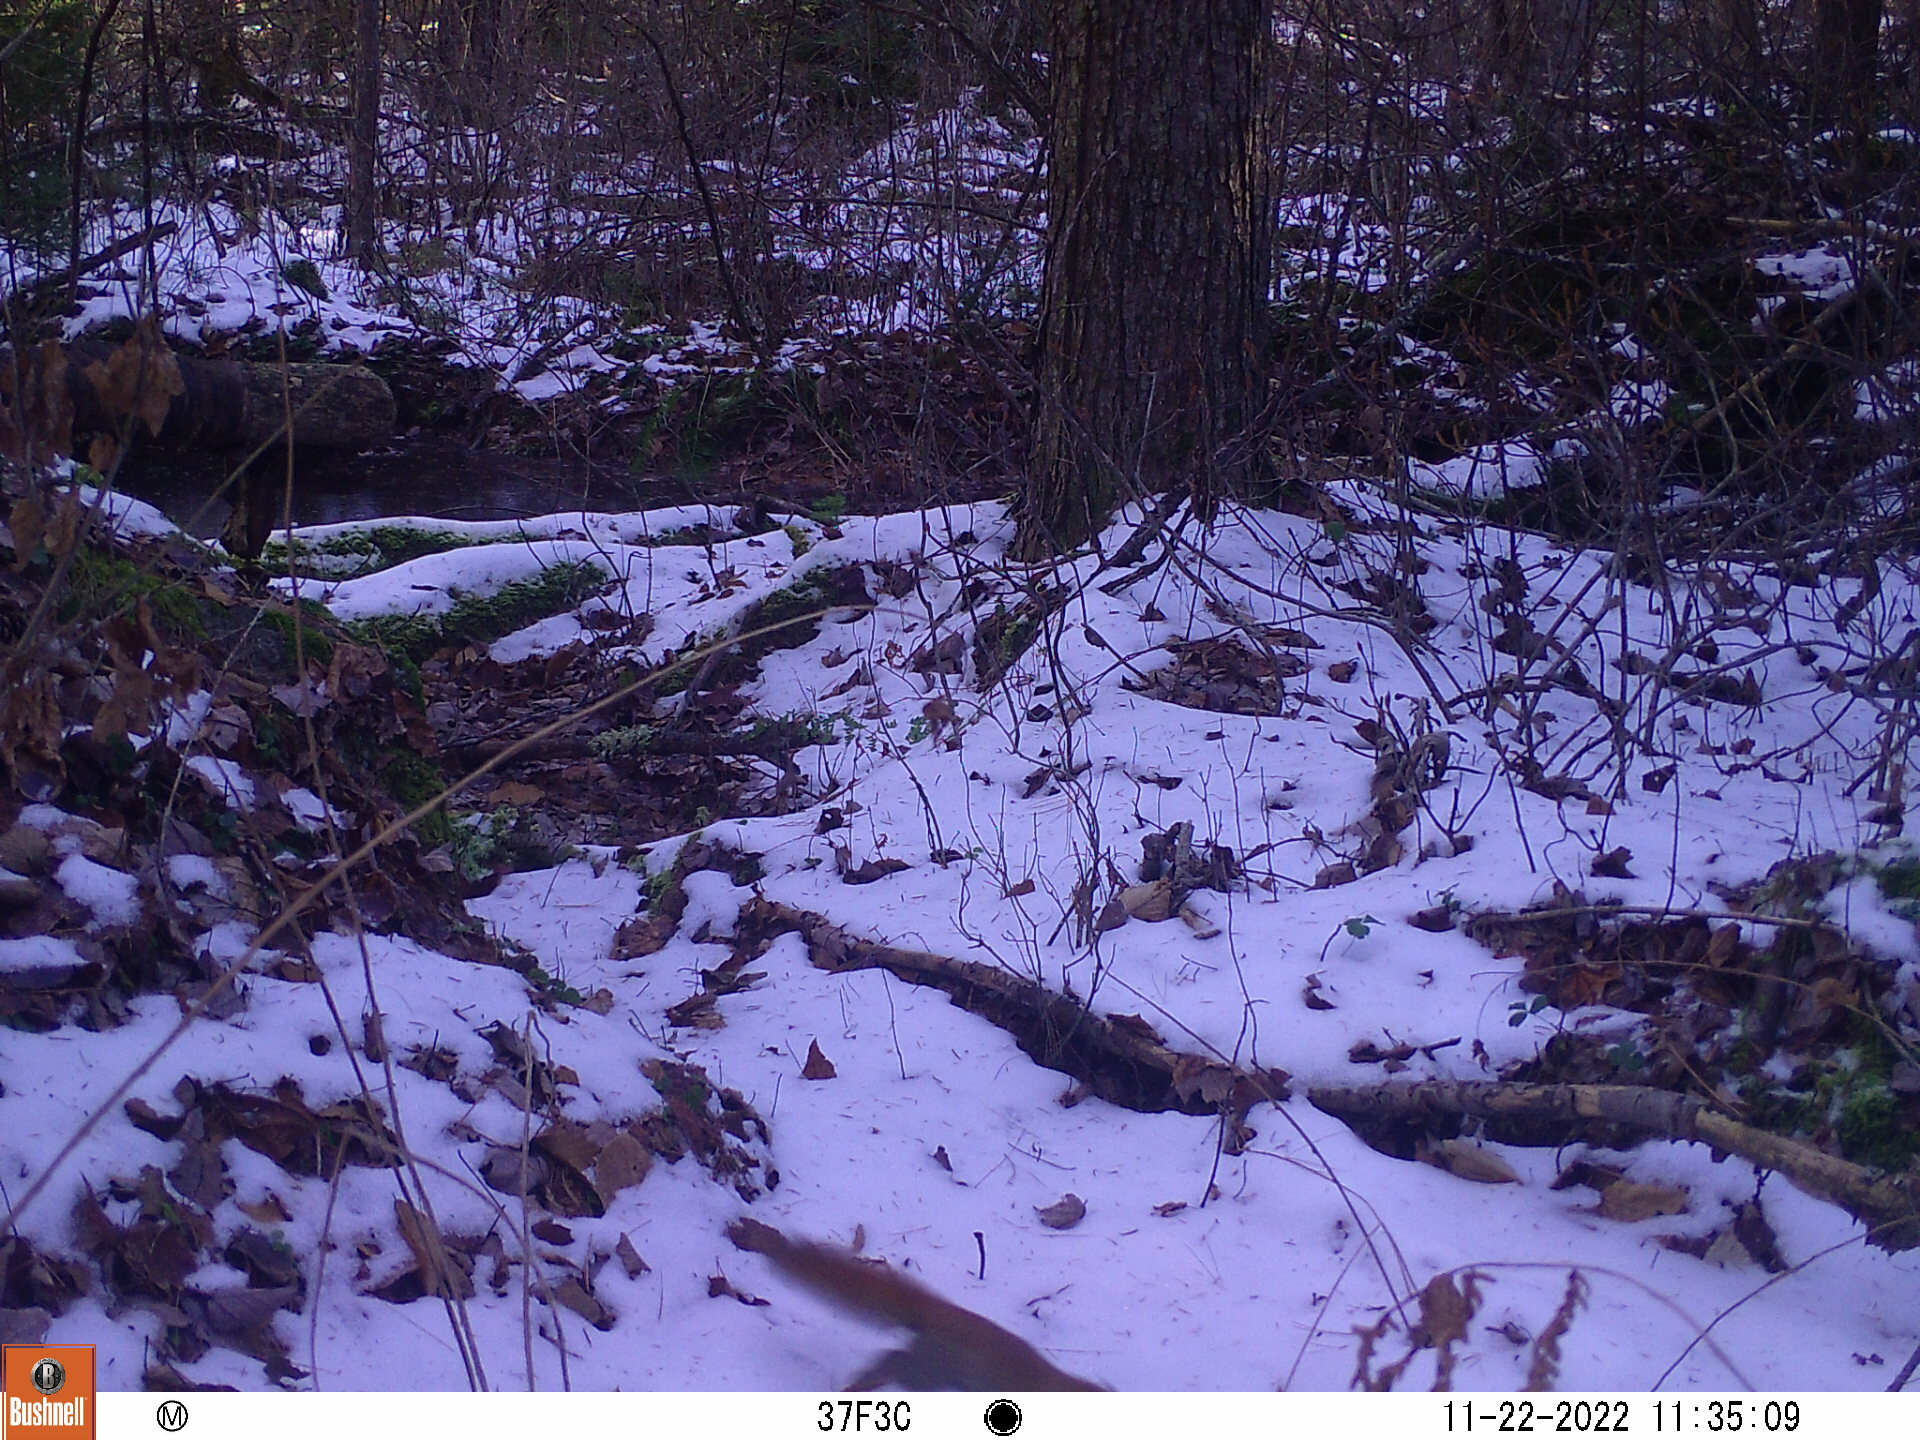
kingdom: Animalia
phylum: Chordata
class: Mammalia
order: Rodentia
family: Sciuridae
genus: Tamiasciurus
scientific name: Tamiasciurus hudsonicus
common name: Red squirrel
